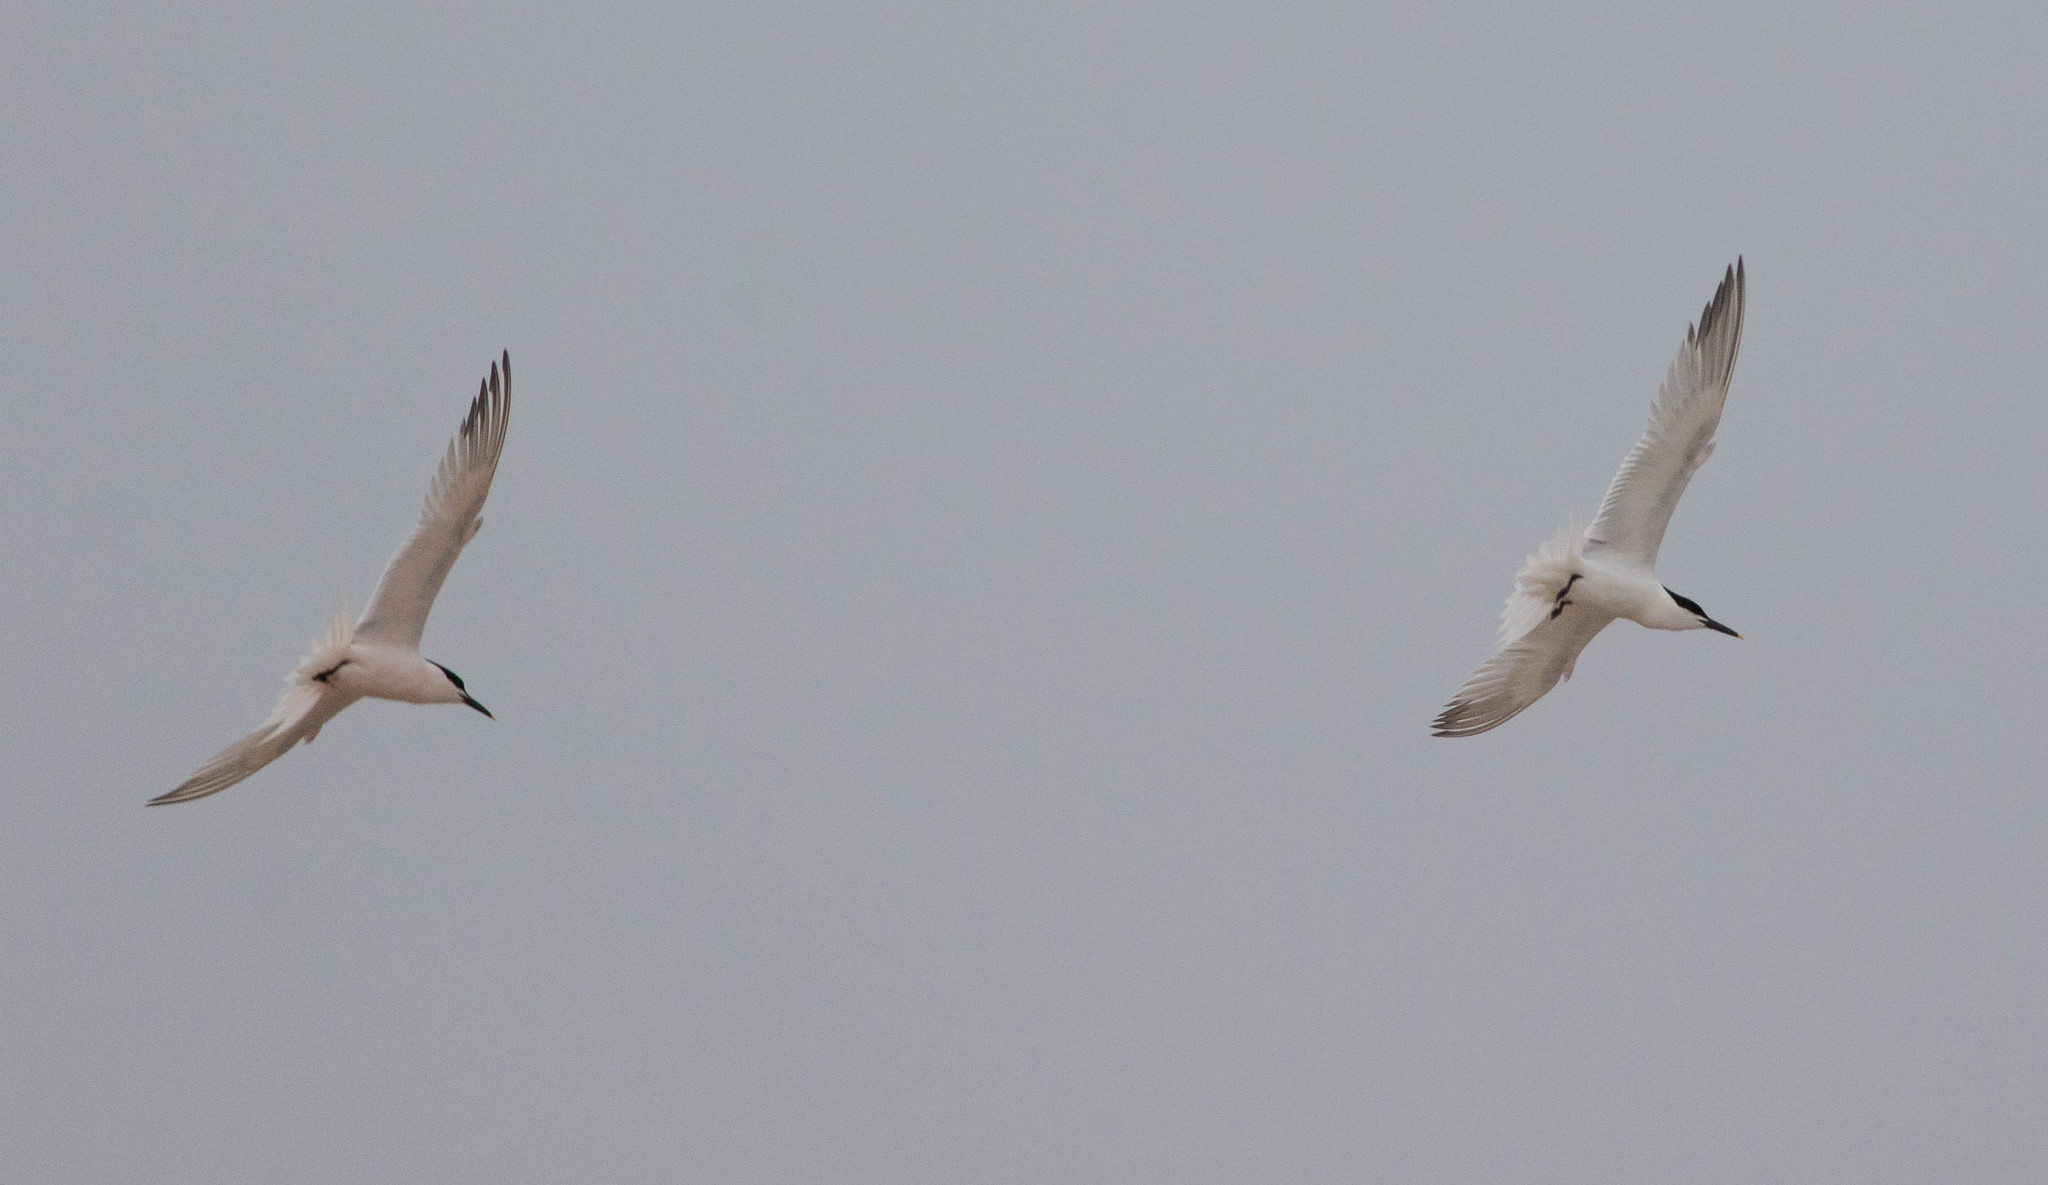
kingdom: Animalia
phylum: Chordata
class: Aves
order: Charadriiformes
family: Laridae
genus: Thalasseus
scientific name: Thalasseus sandvicensis
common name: Sandwich tern
